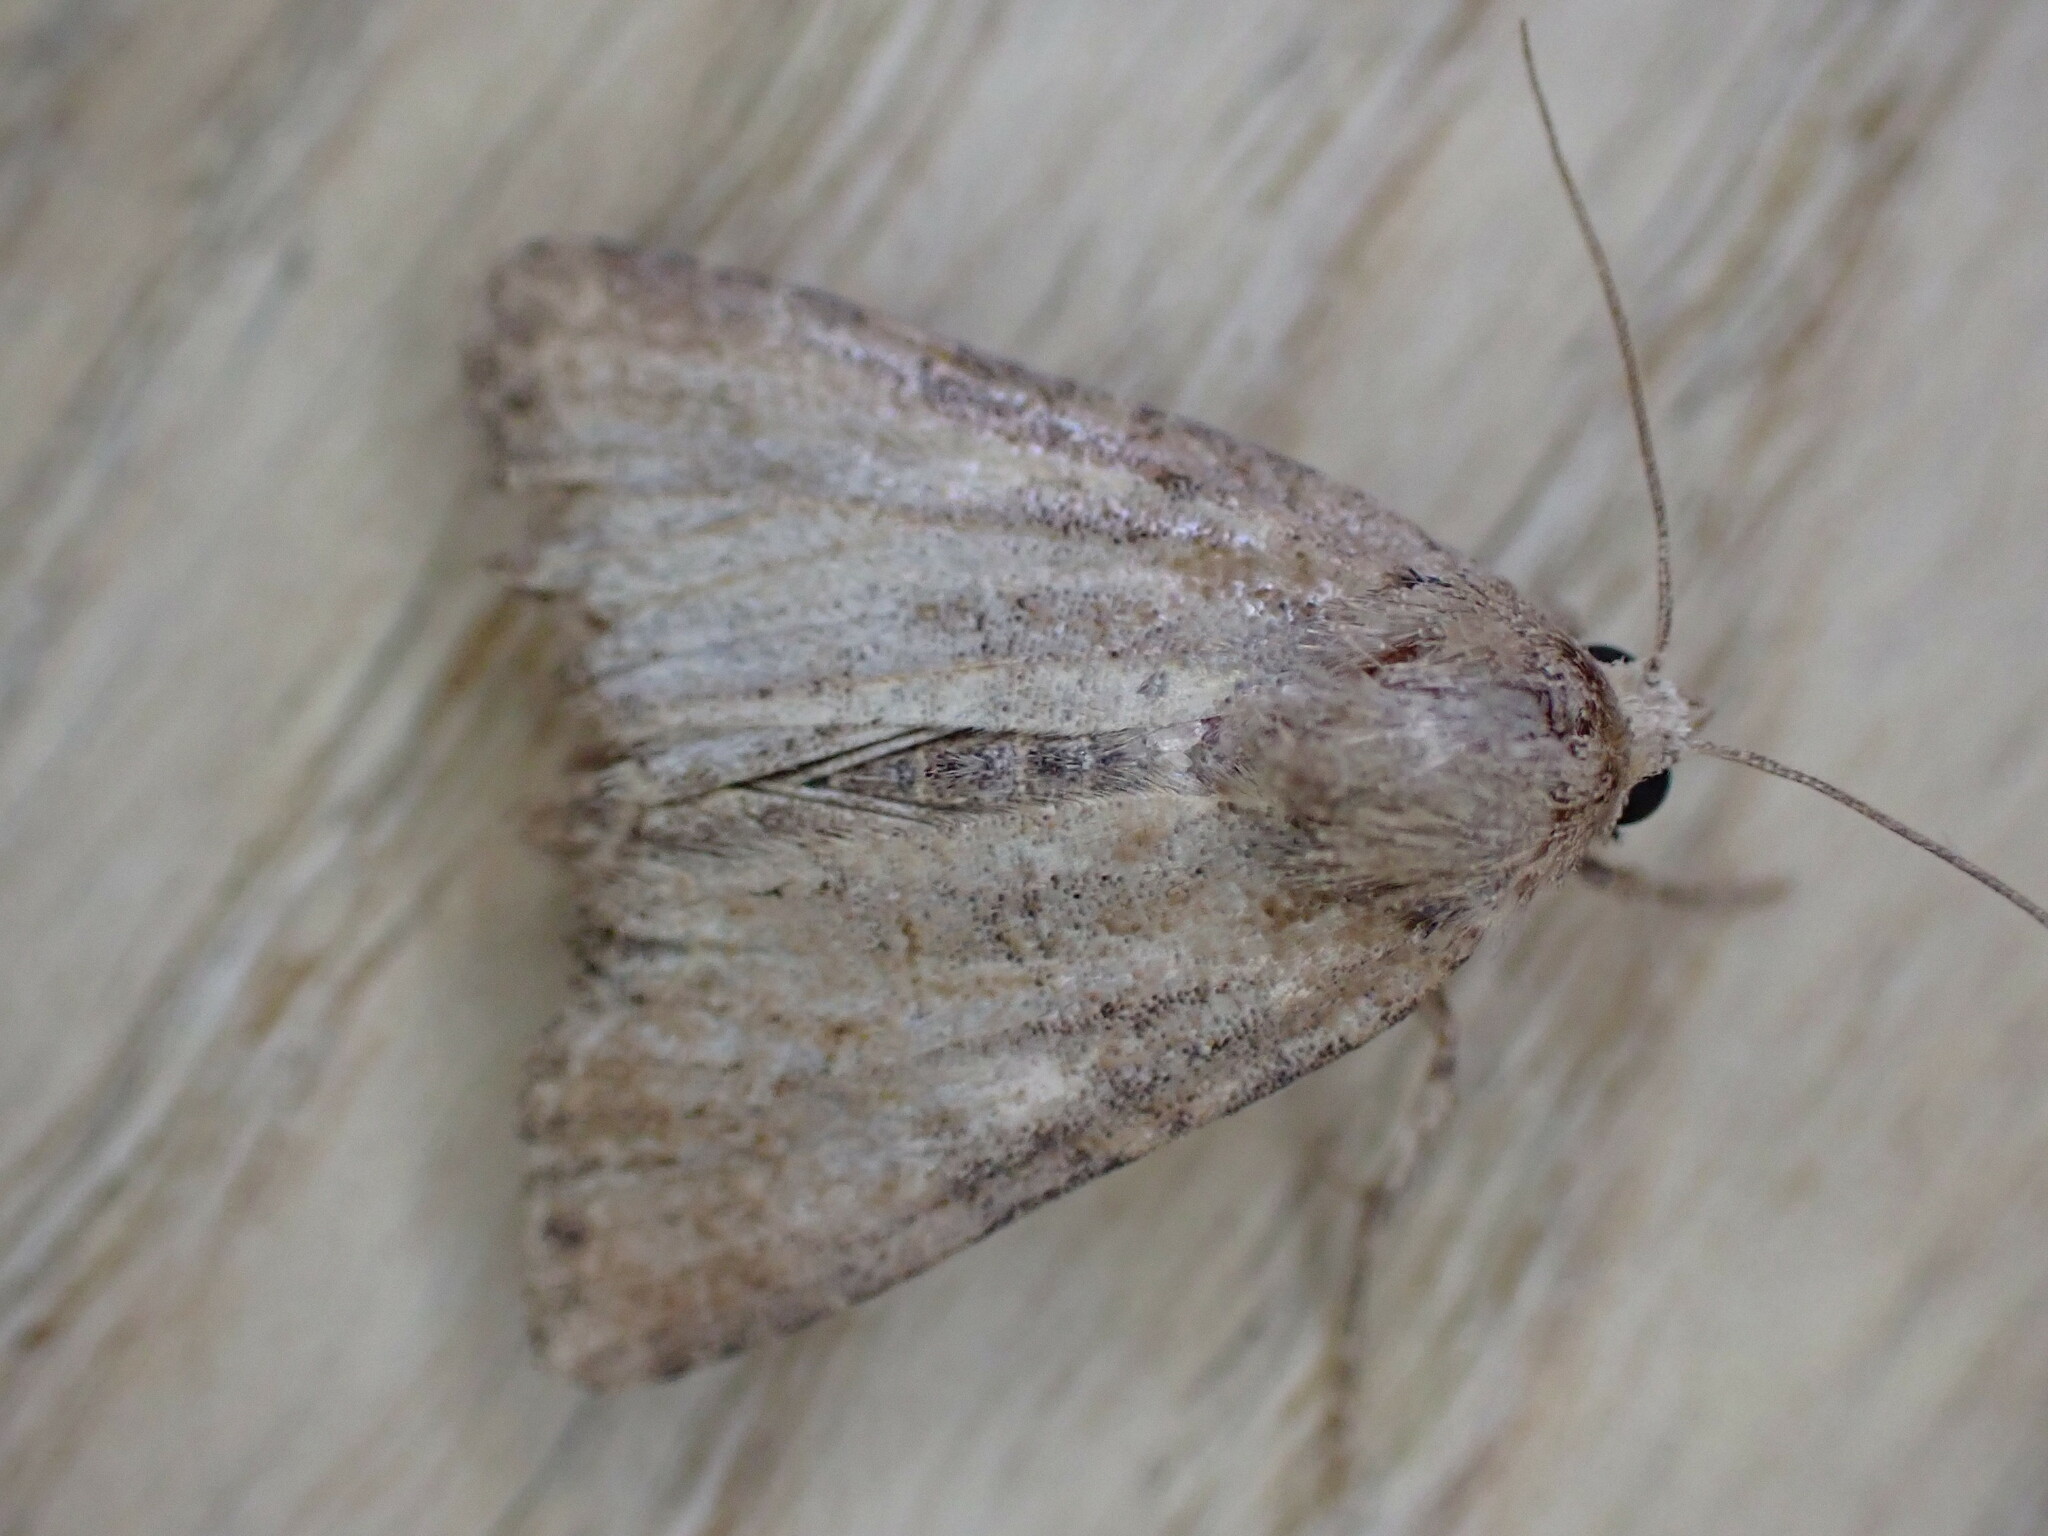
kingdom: Animalia
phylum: Arthropoda
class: Insecta
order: Lepidoptera
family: Noctuidae
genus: Mesoligia
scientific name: Mesoligia furuncula
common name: Cloaked minor
